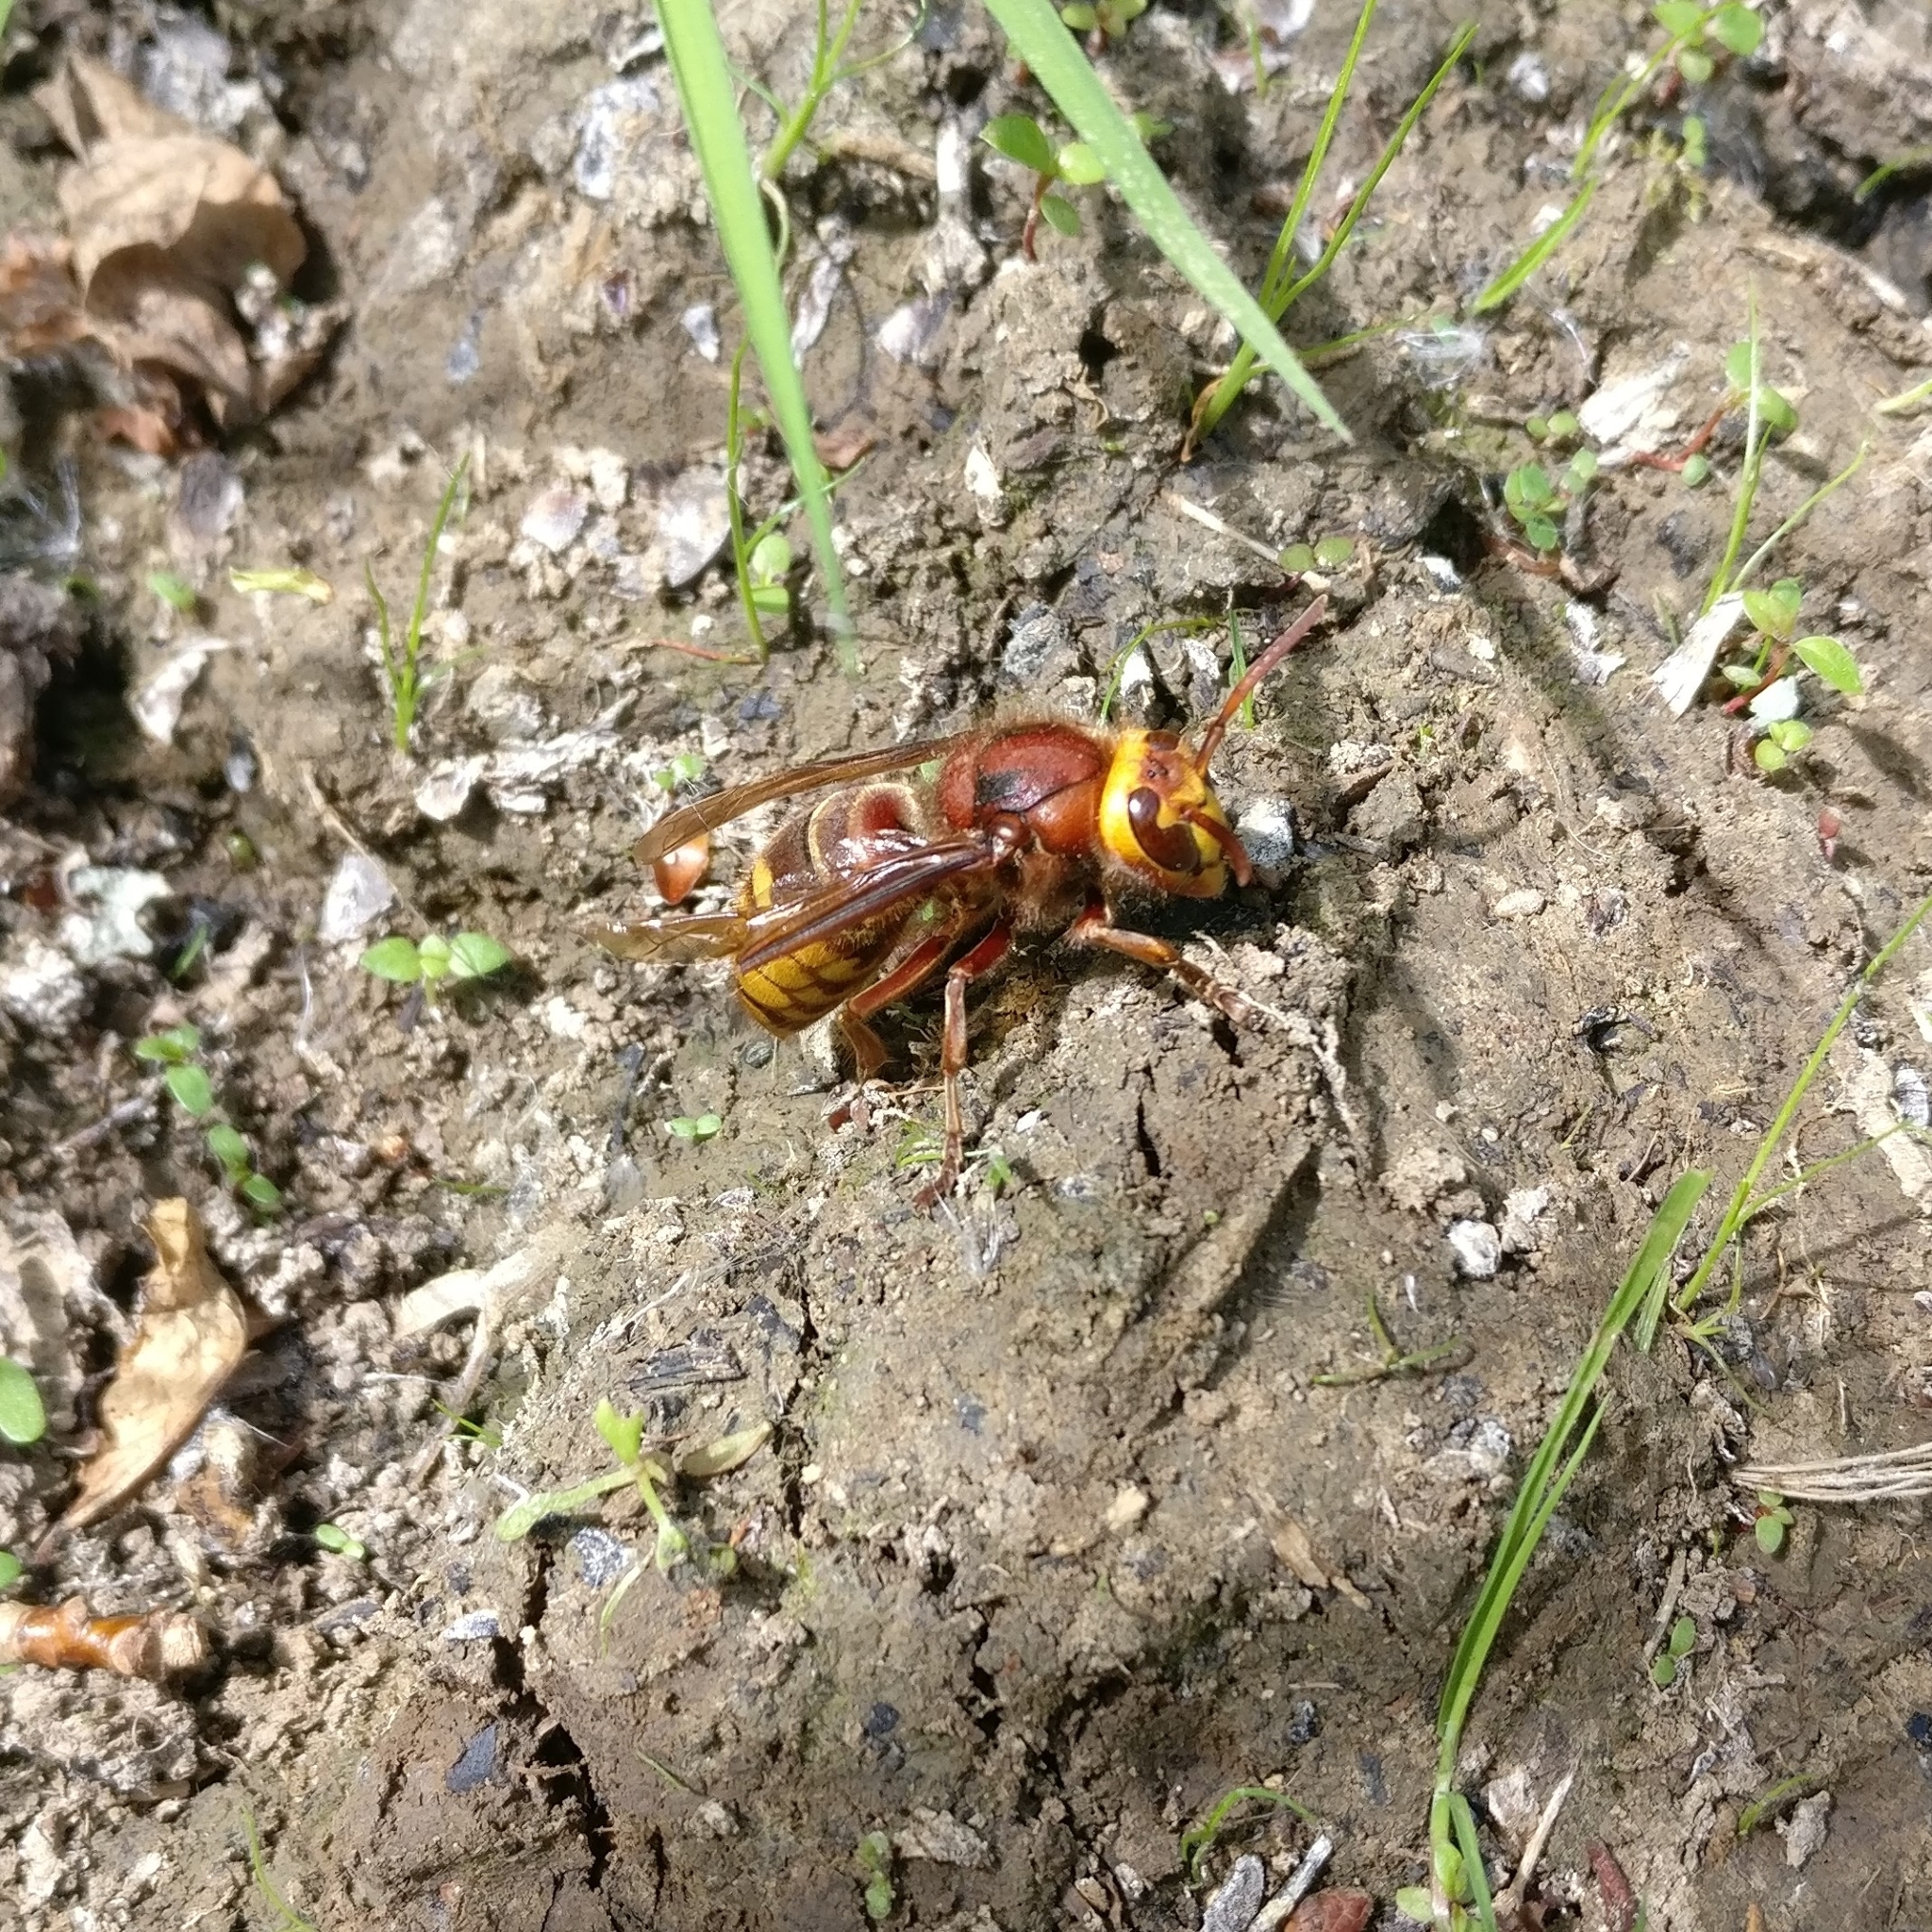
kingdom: Animalia
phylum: Arthropoda
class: Insecta
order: Hymenoptera
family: Vespidae
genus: Vespa
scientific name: Vespa crabro
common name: Hornet
